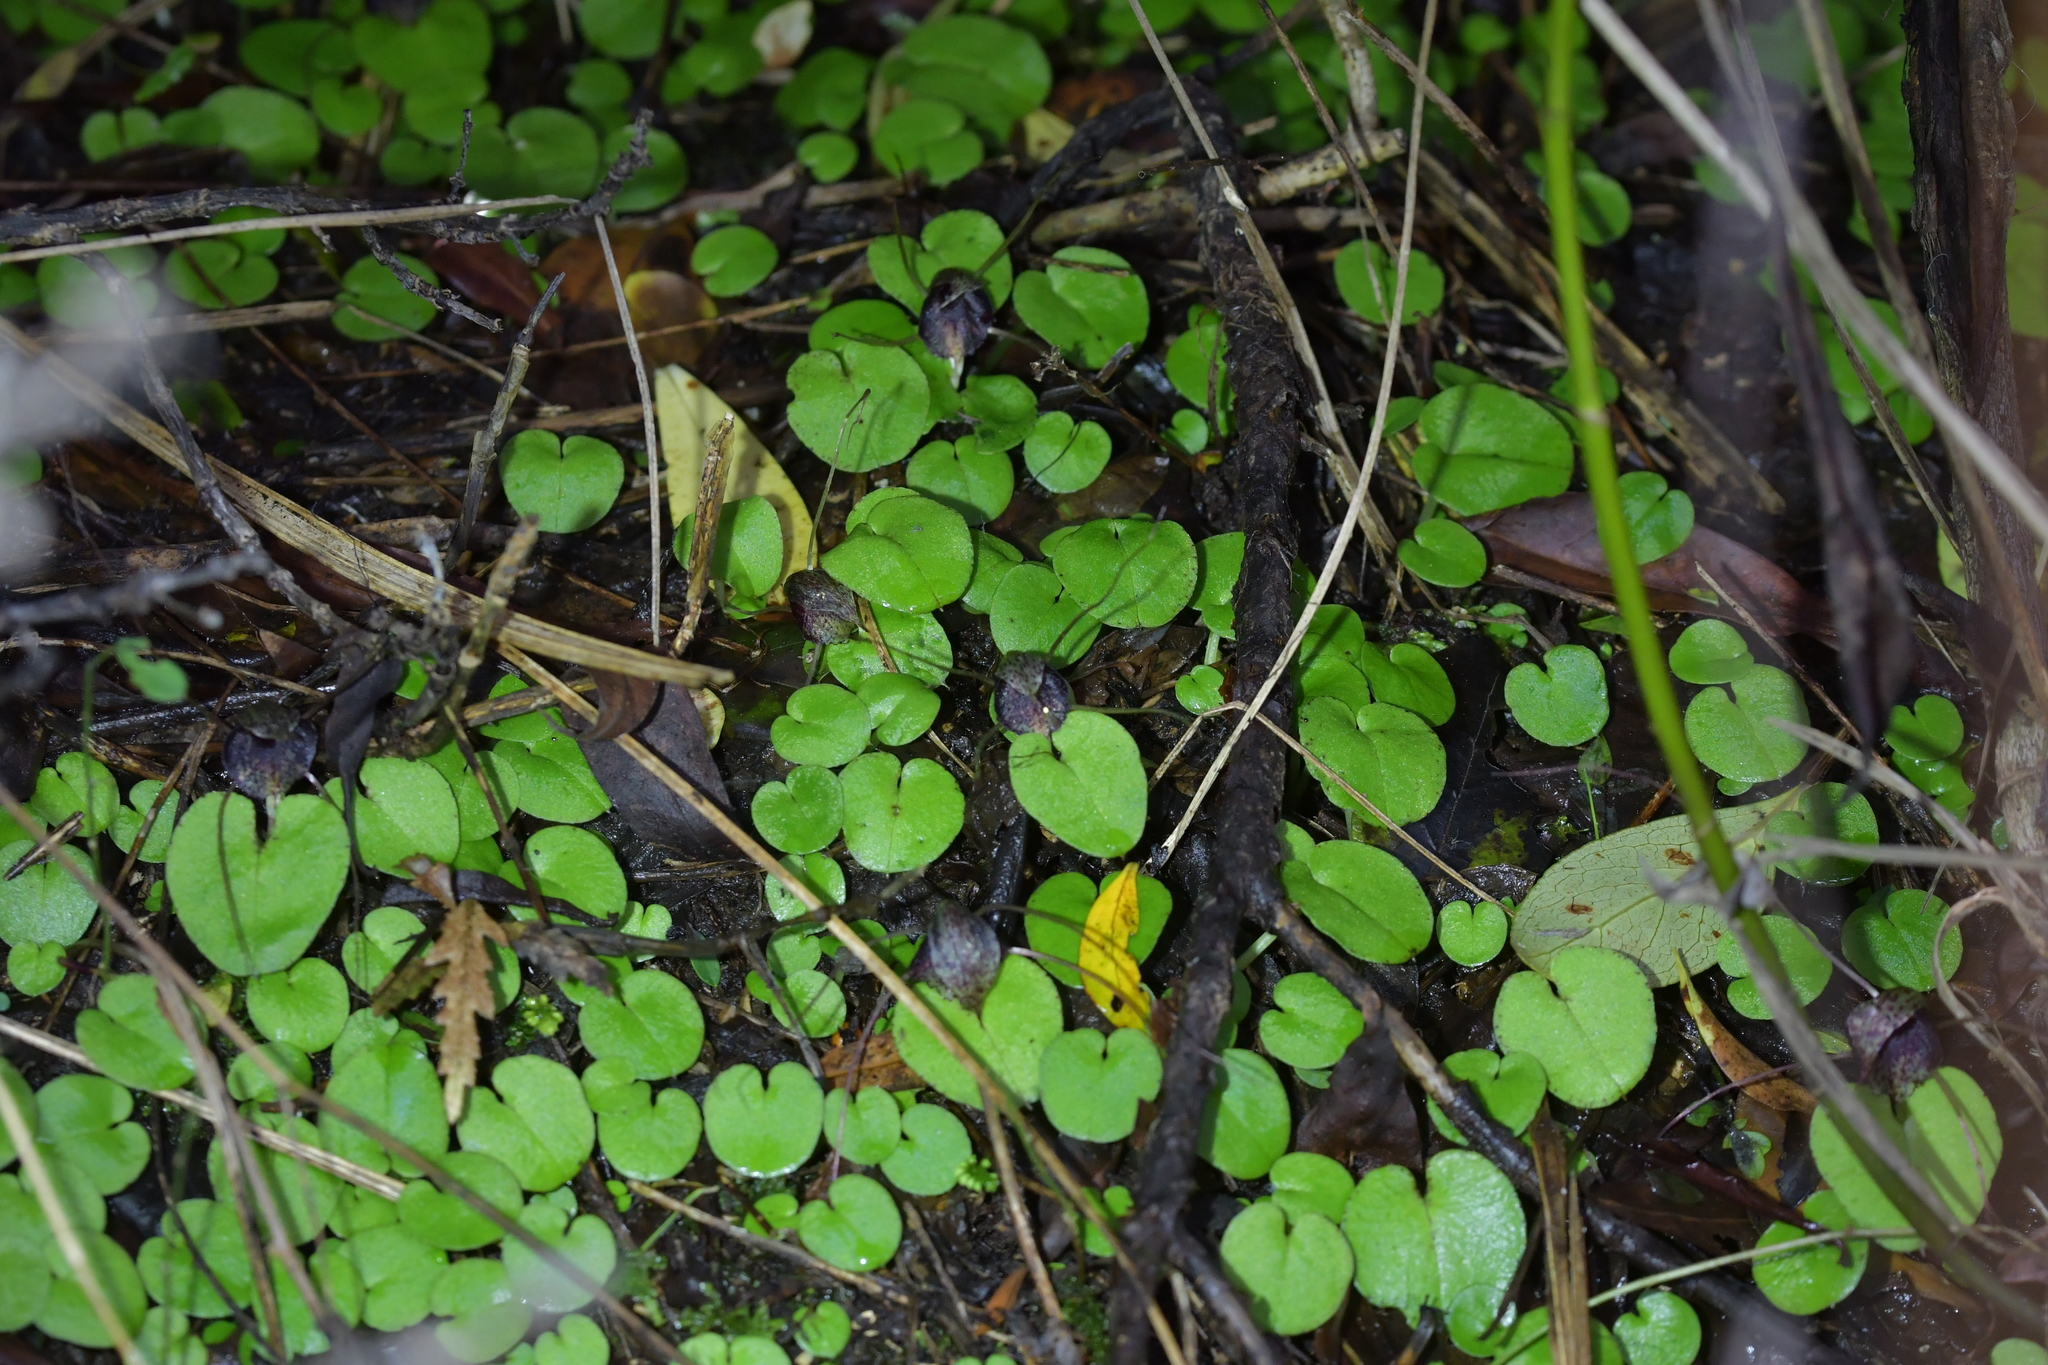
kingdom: Plantae
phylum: Tracheophyta
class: Liliopsida
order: Asparagales
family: Orchidaceae
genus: Corybas
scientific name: Corybas iridescens
